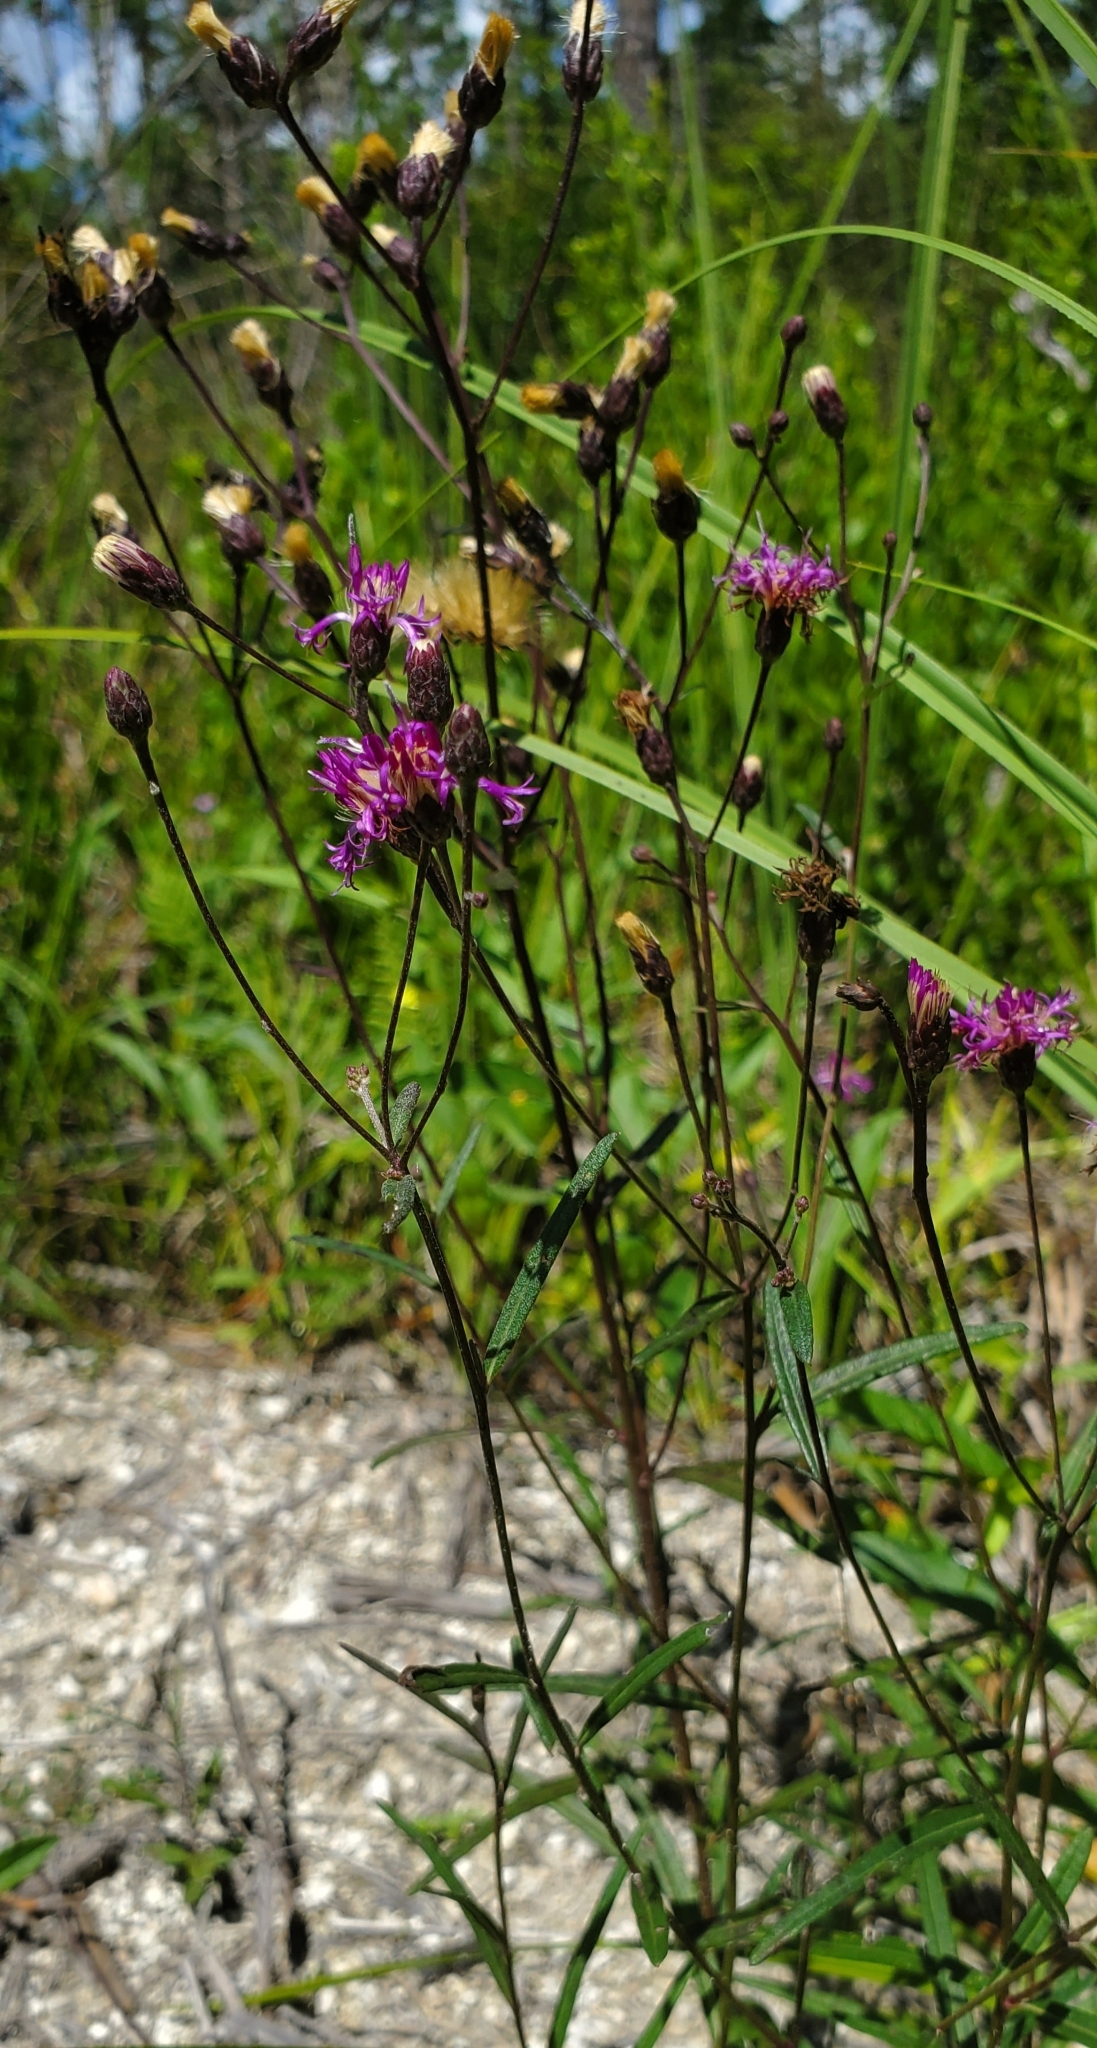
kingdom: Plantae
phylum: Tracheophyta
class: Magnoliopsida
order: Asterales
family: Asteraceae
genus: Vernonia
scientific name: Vernonia blodgettii
